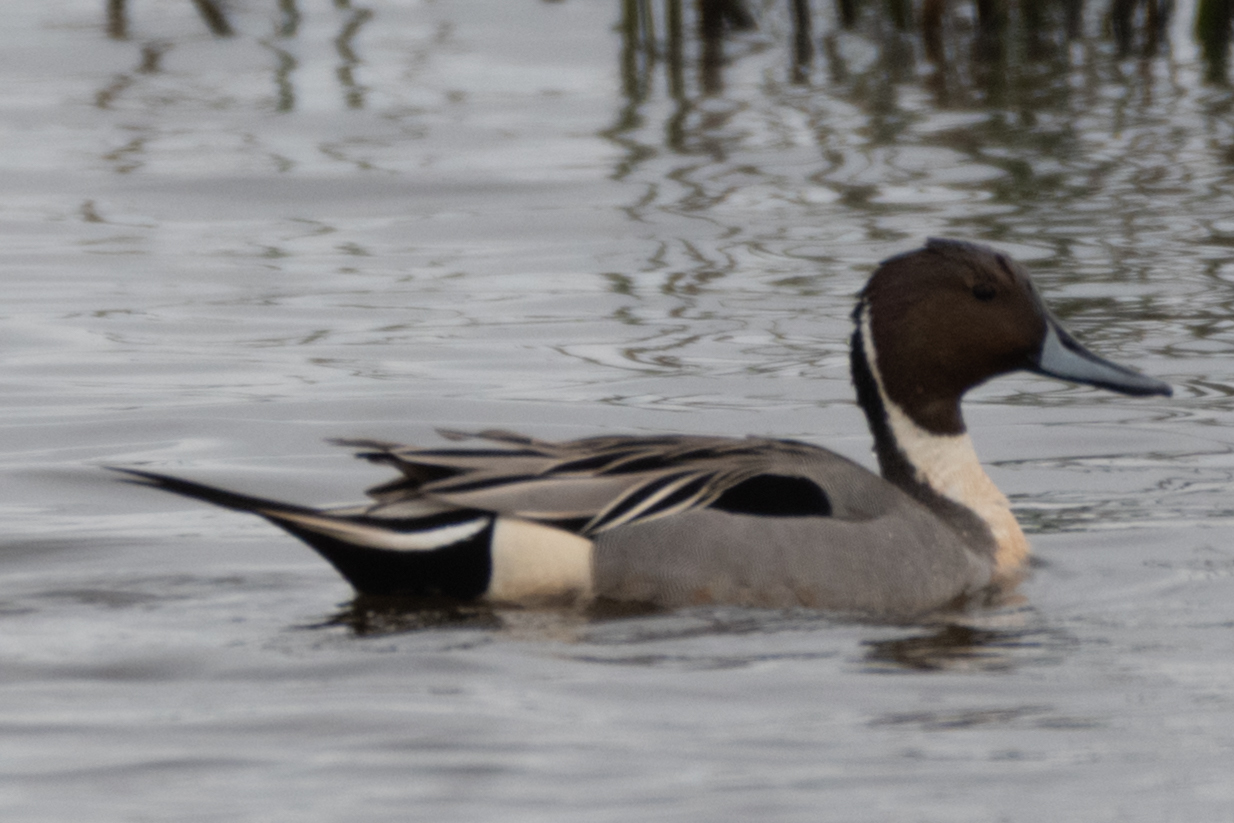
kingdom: Animalia
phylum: Chordata
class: Aves
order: Anseriformes
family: Anatidae
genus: Anas
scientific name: Anas acuta
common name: Northern pintail
